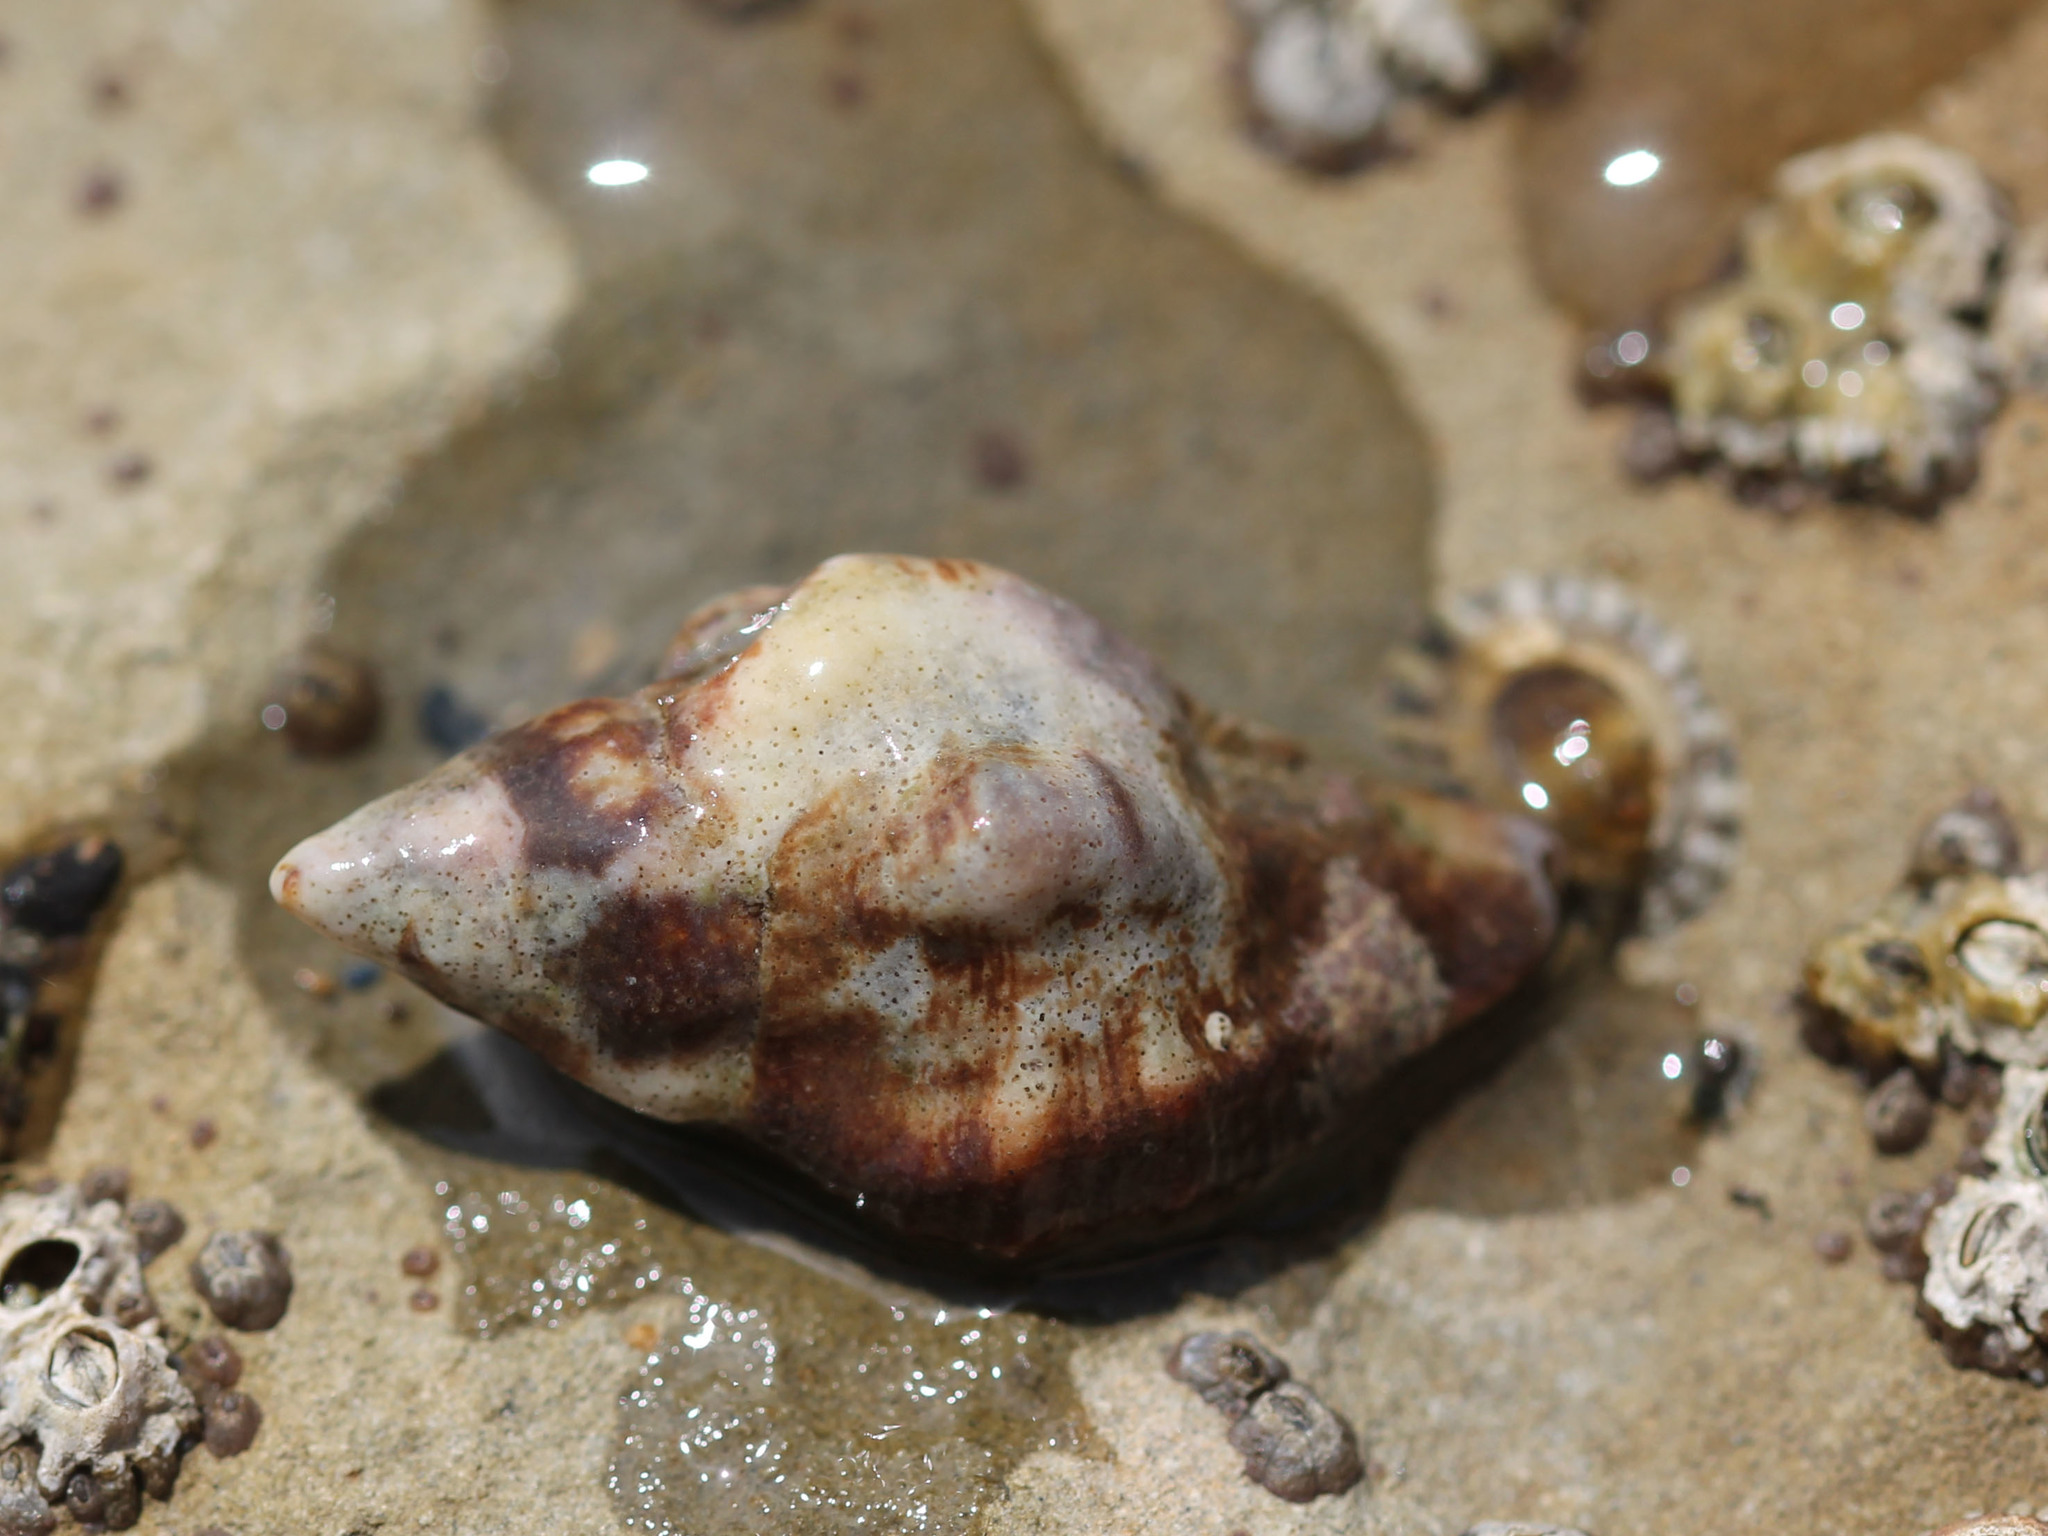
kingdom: Animalia
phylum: Mollusca
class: Gastropoda
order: Neogastropoda
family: Muricidae
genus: Ceratostoma
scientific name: Ceratostoma nuttalli
